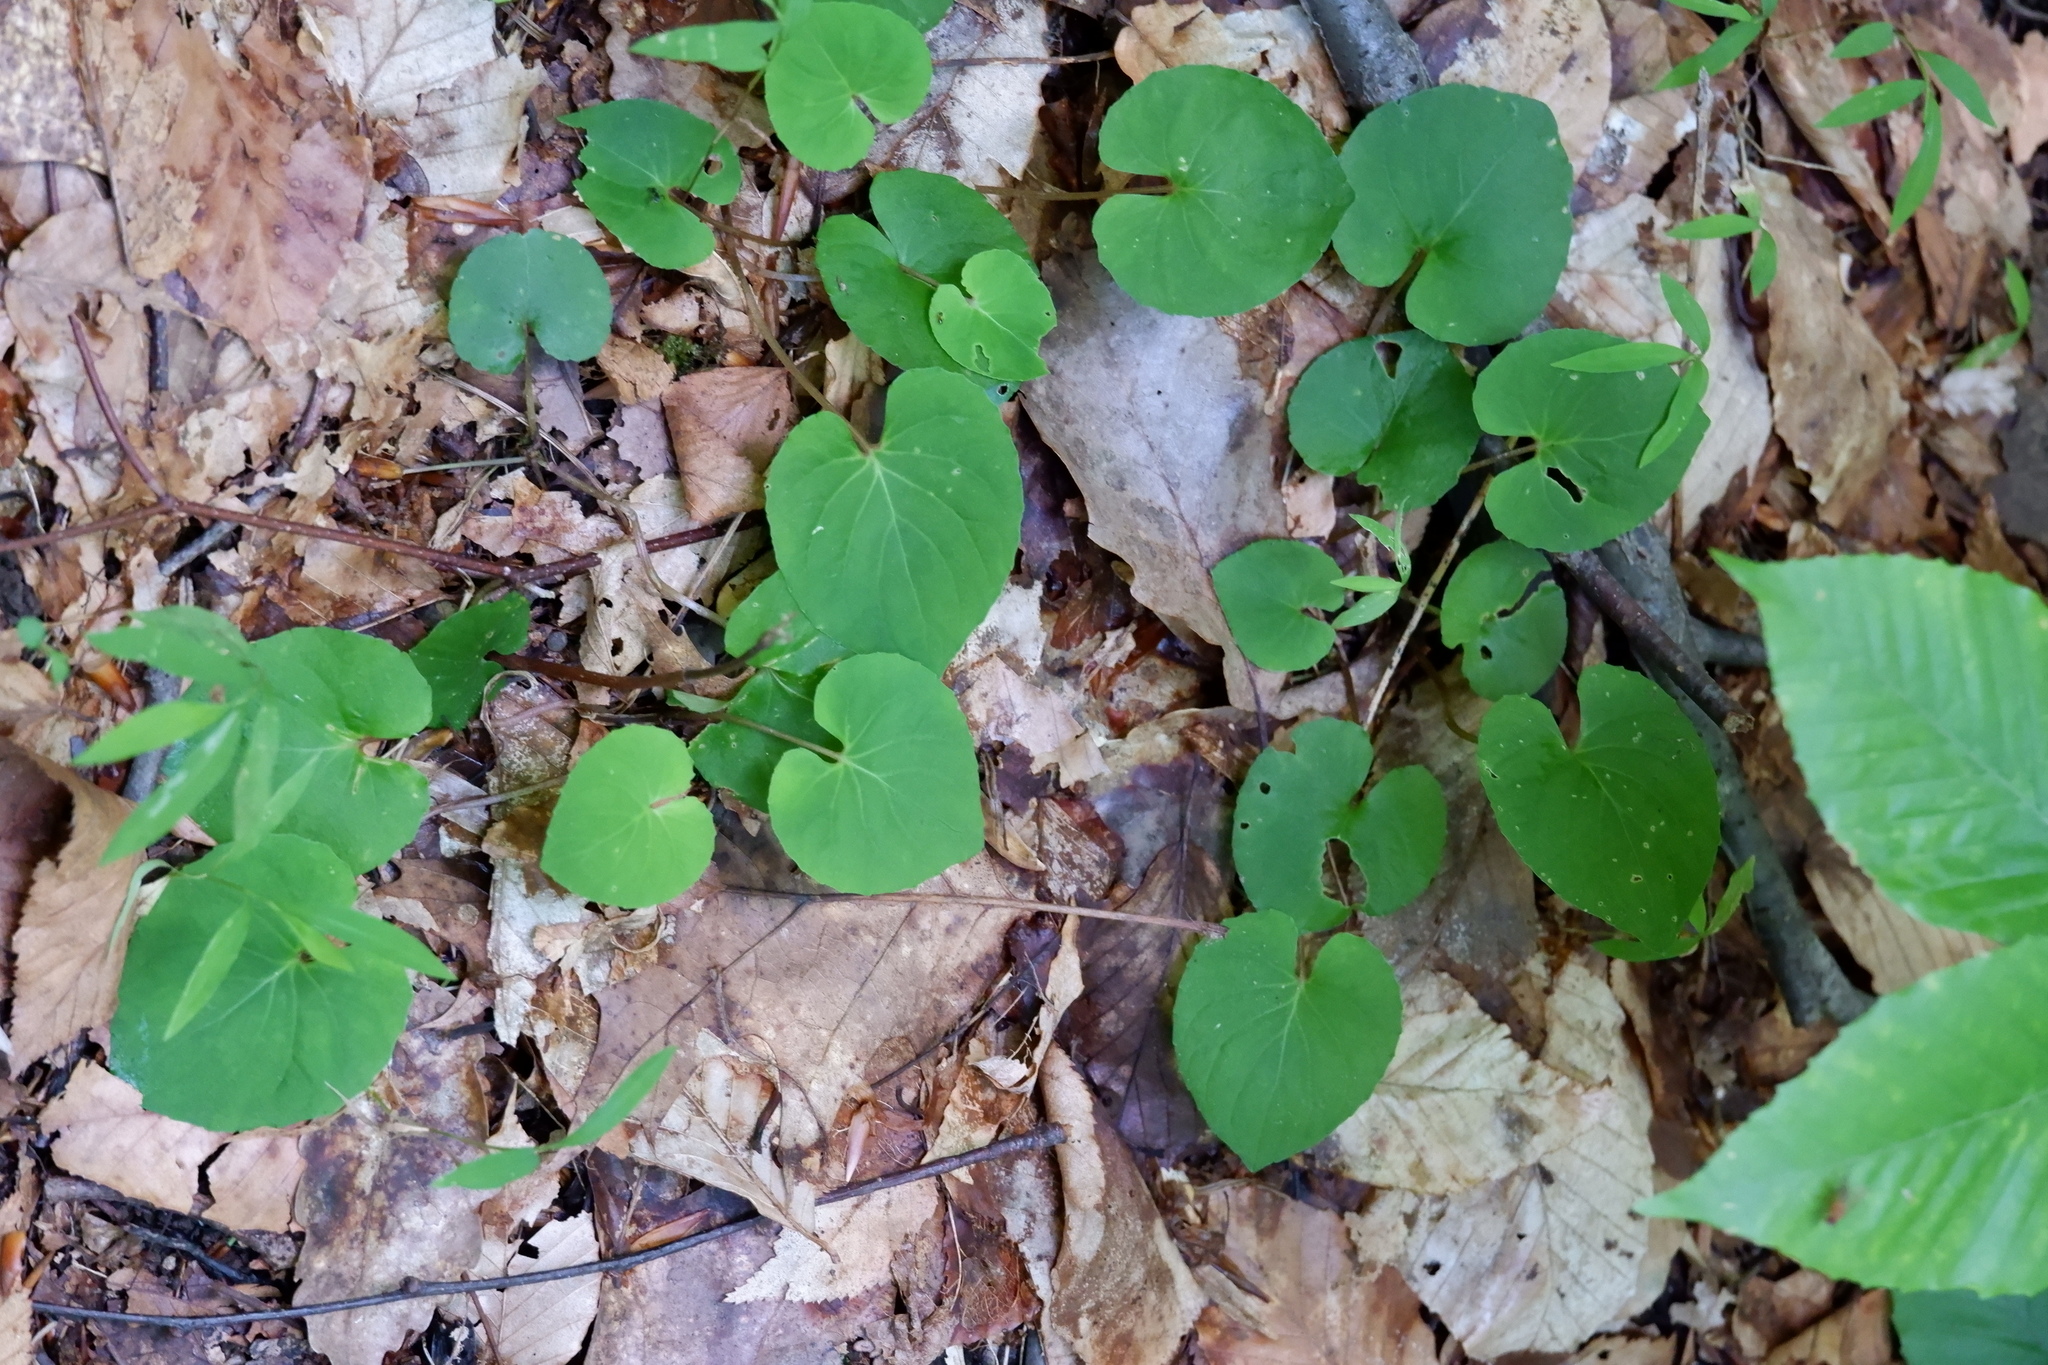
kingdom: Plantae
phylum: Tracheophyta
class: Magnoliopsida
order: Malpighiales
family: Violaceae
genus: Viola
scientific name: Viola blanda
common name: Sweet white violet
